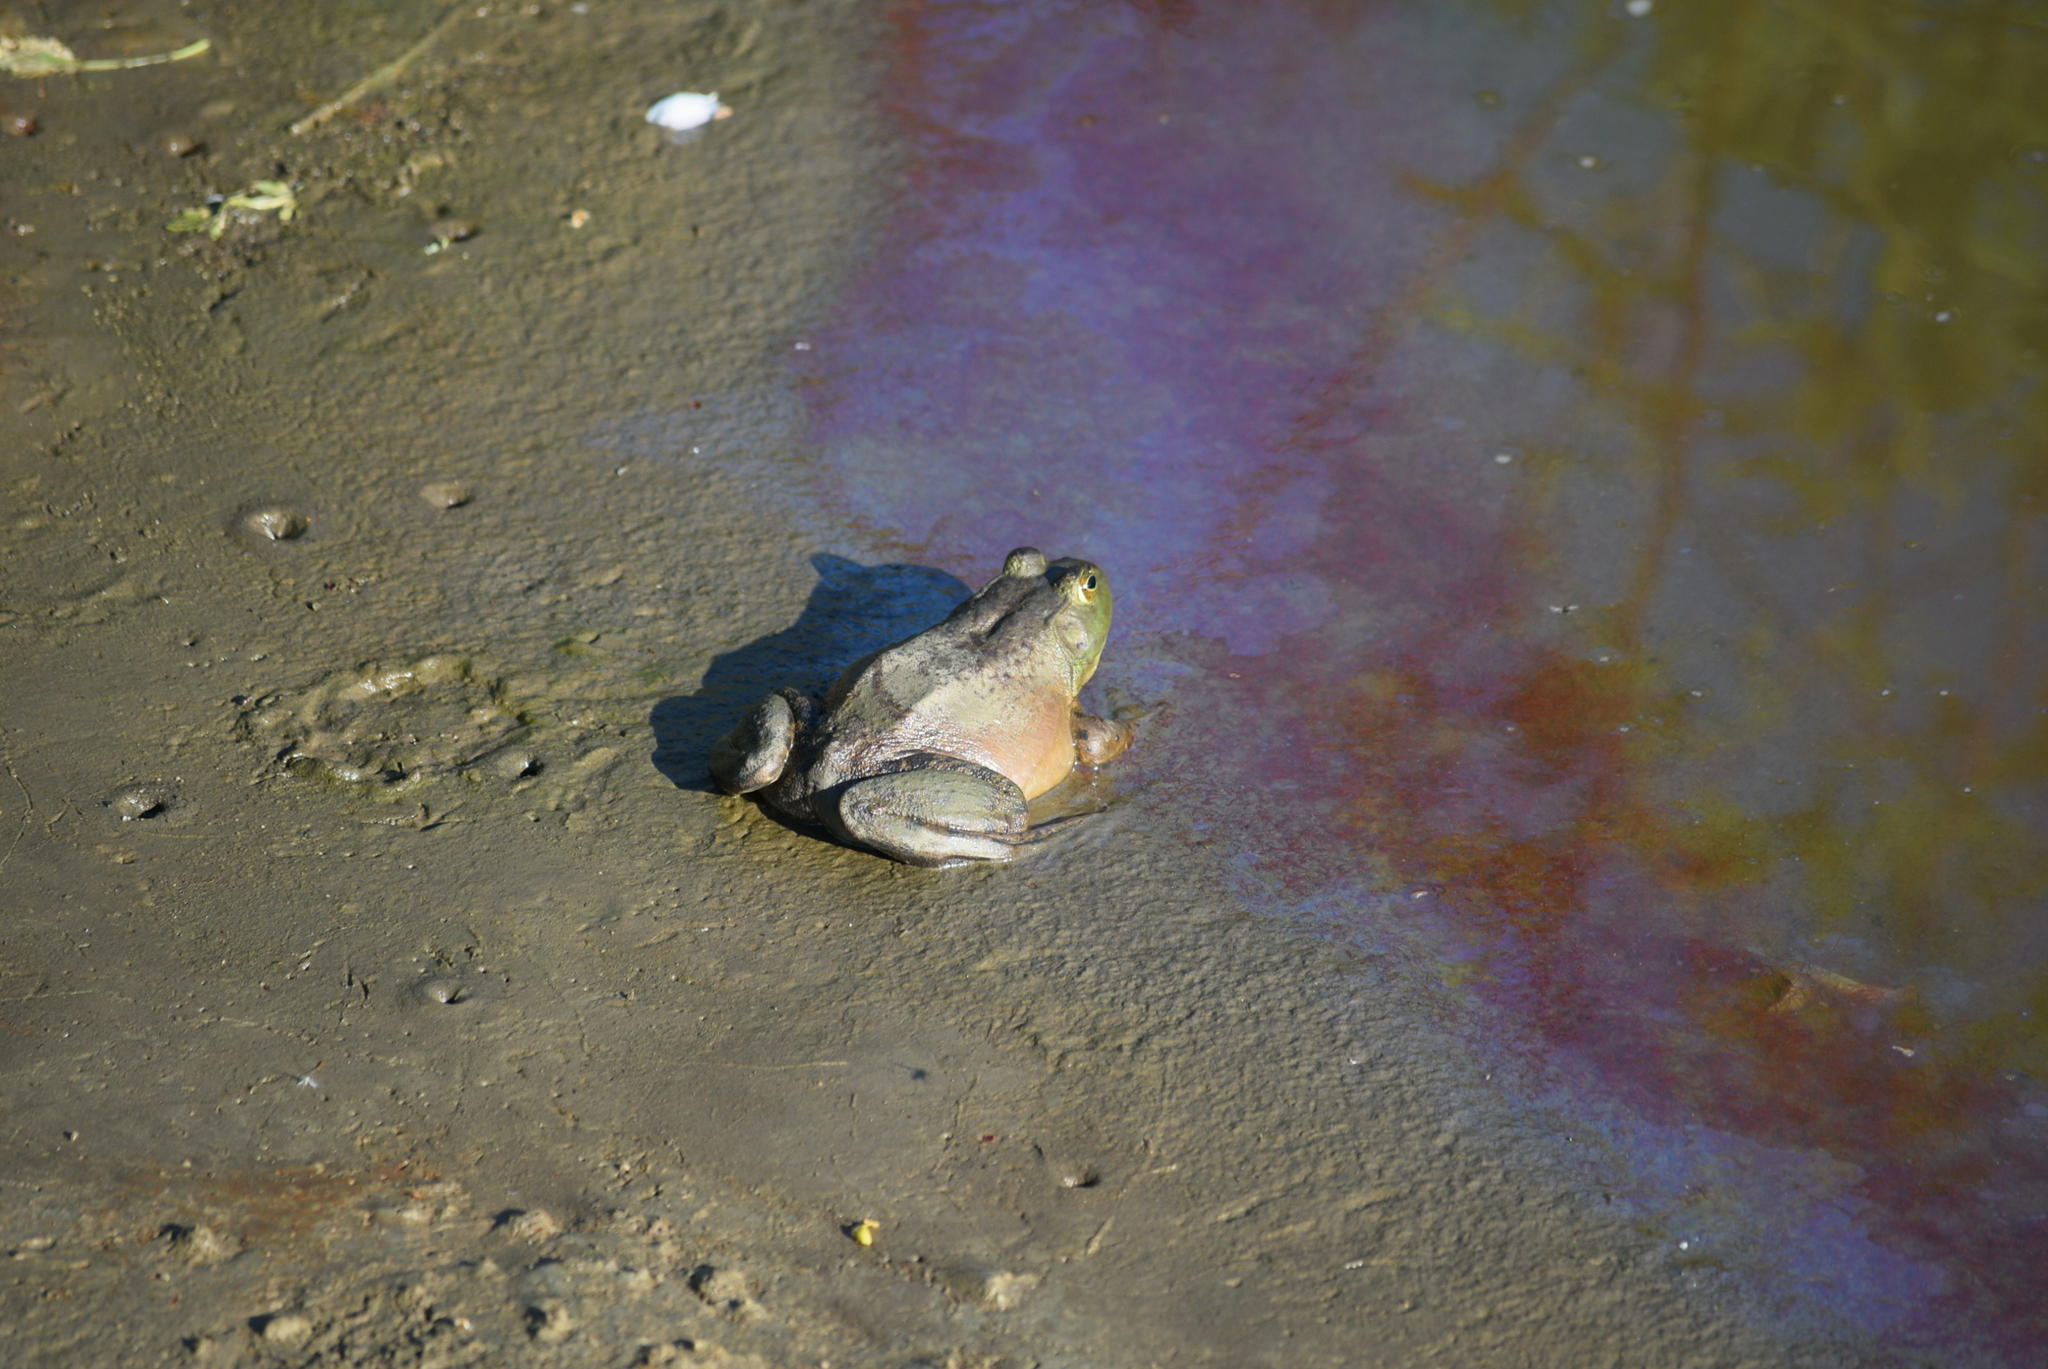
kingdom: Animalia
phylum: Chordata
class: Amphibia
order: Anura
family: Ranidae
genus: Lithobates
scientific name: Lithobates catesbeianus
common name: American bullfrog
